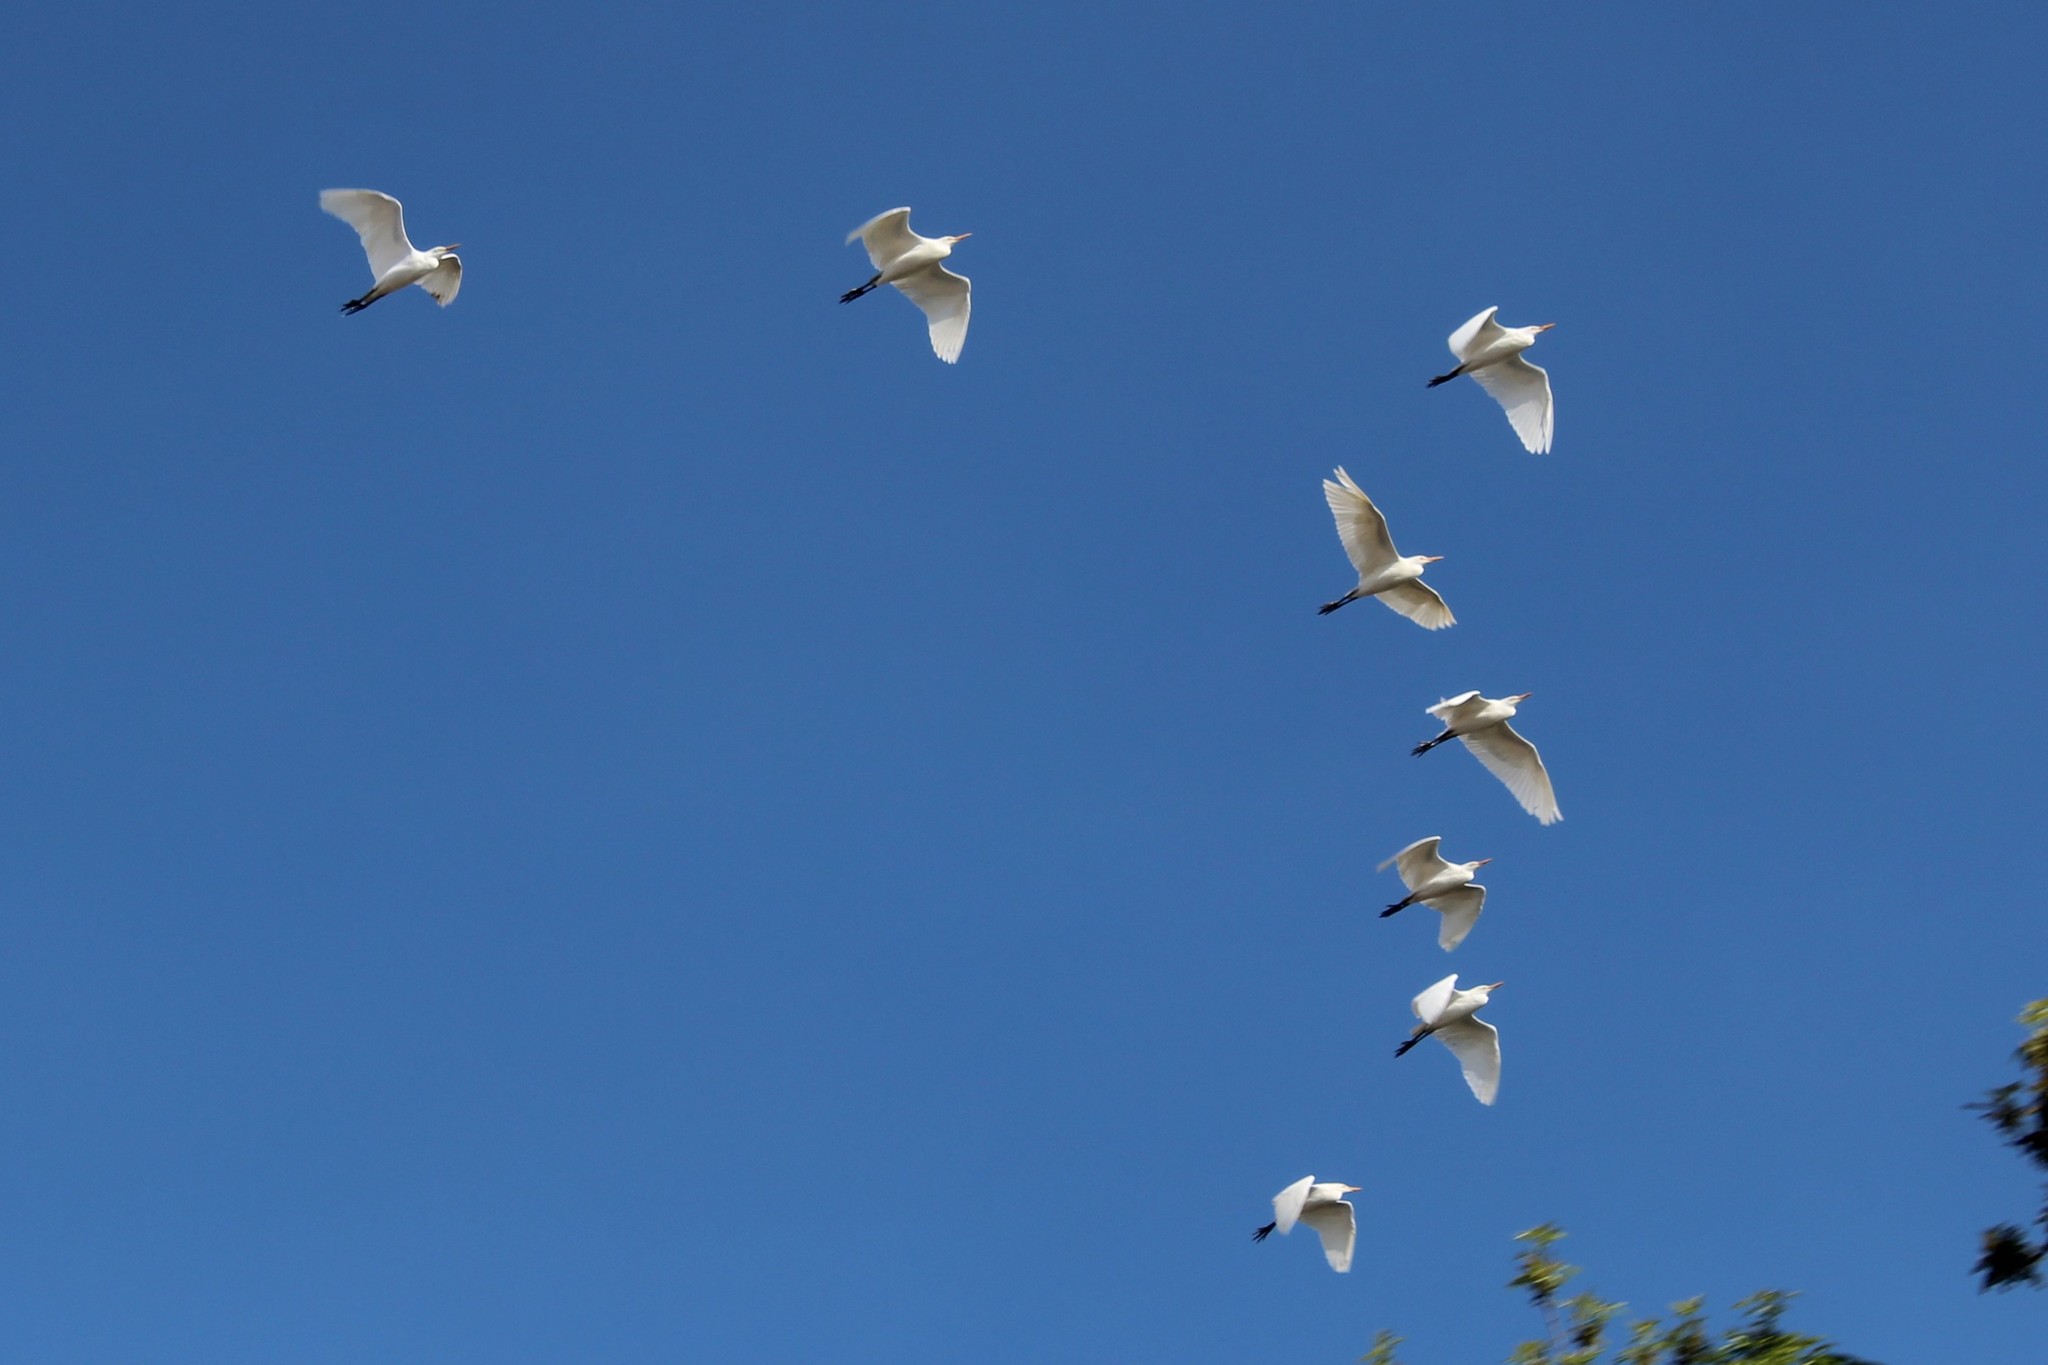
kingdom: Animalia
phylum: Chordata
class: Aves
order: Pelecaniformes
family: Ardeidae
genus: Bubulcus
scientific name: Bubulcus ibis
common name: Cattle egret
